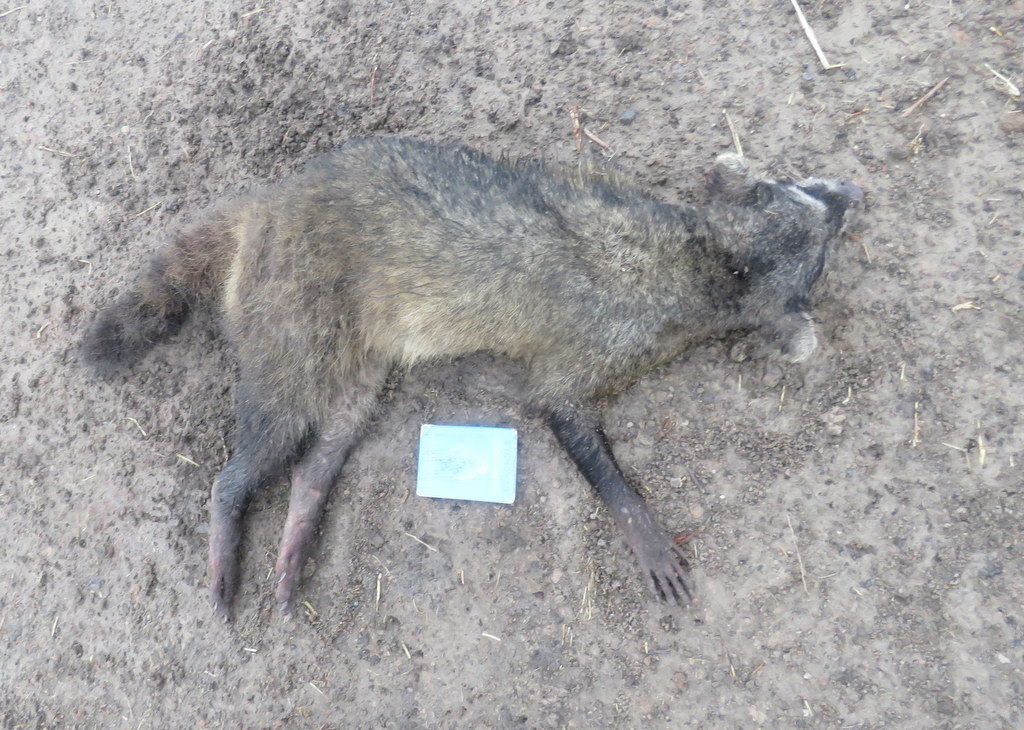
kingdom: Animalia
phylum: Chordata
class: Mammalia
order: Carnivora
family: Procyonidae
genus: Procyon
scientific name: Procyon cancrivorus
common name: Crab-eating raccoon
